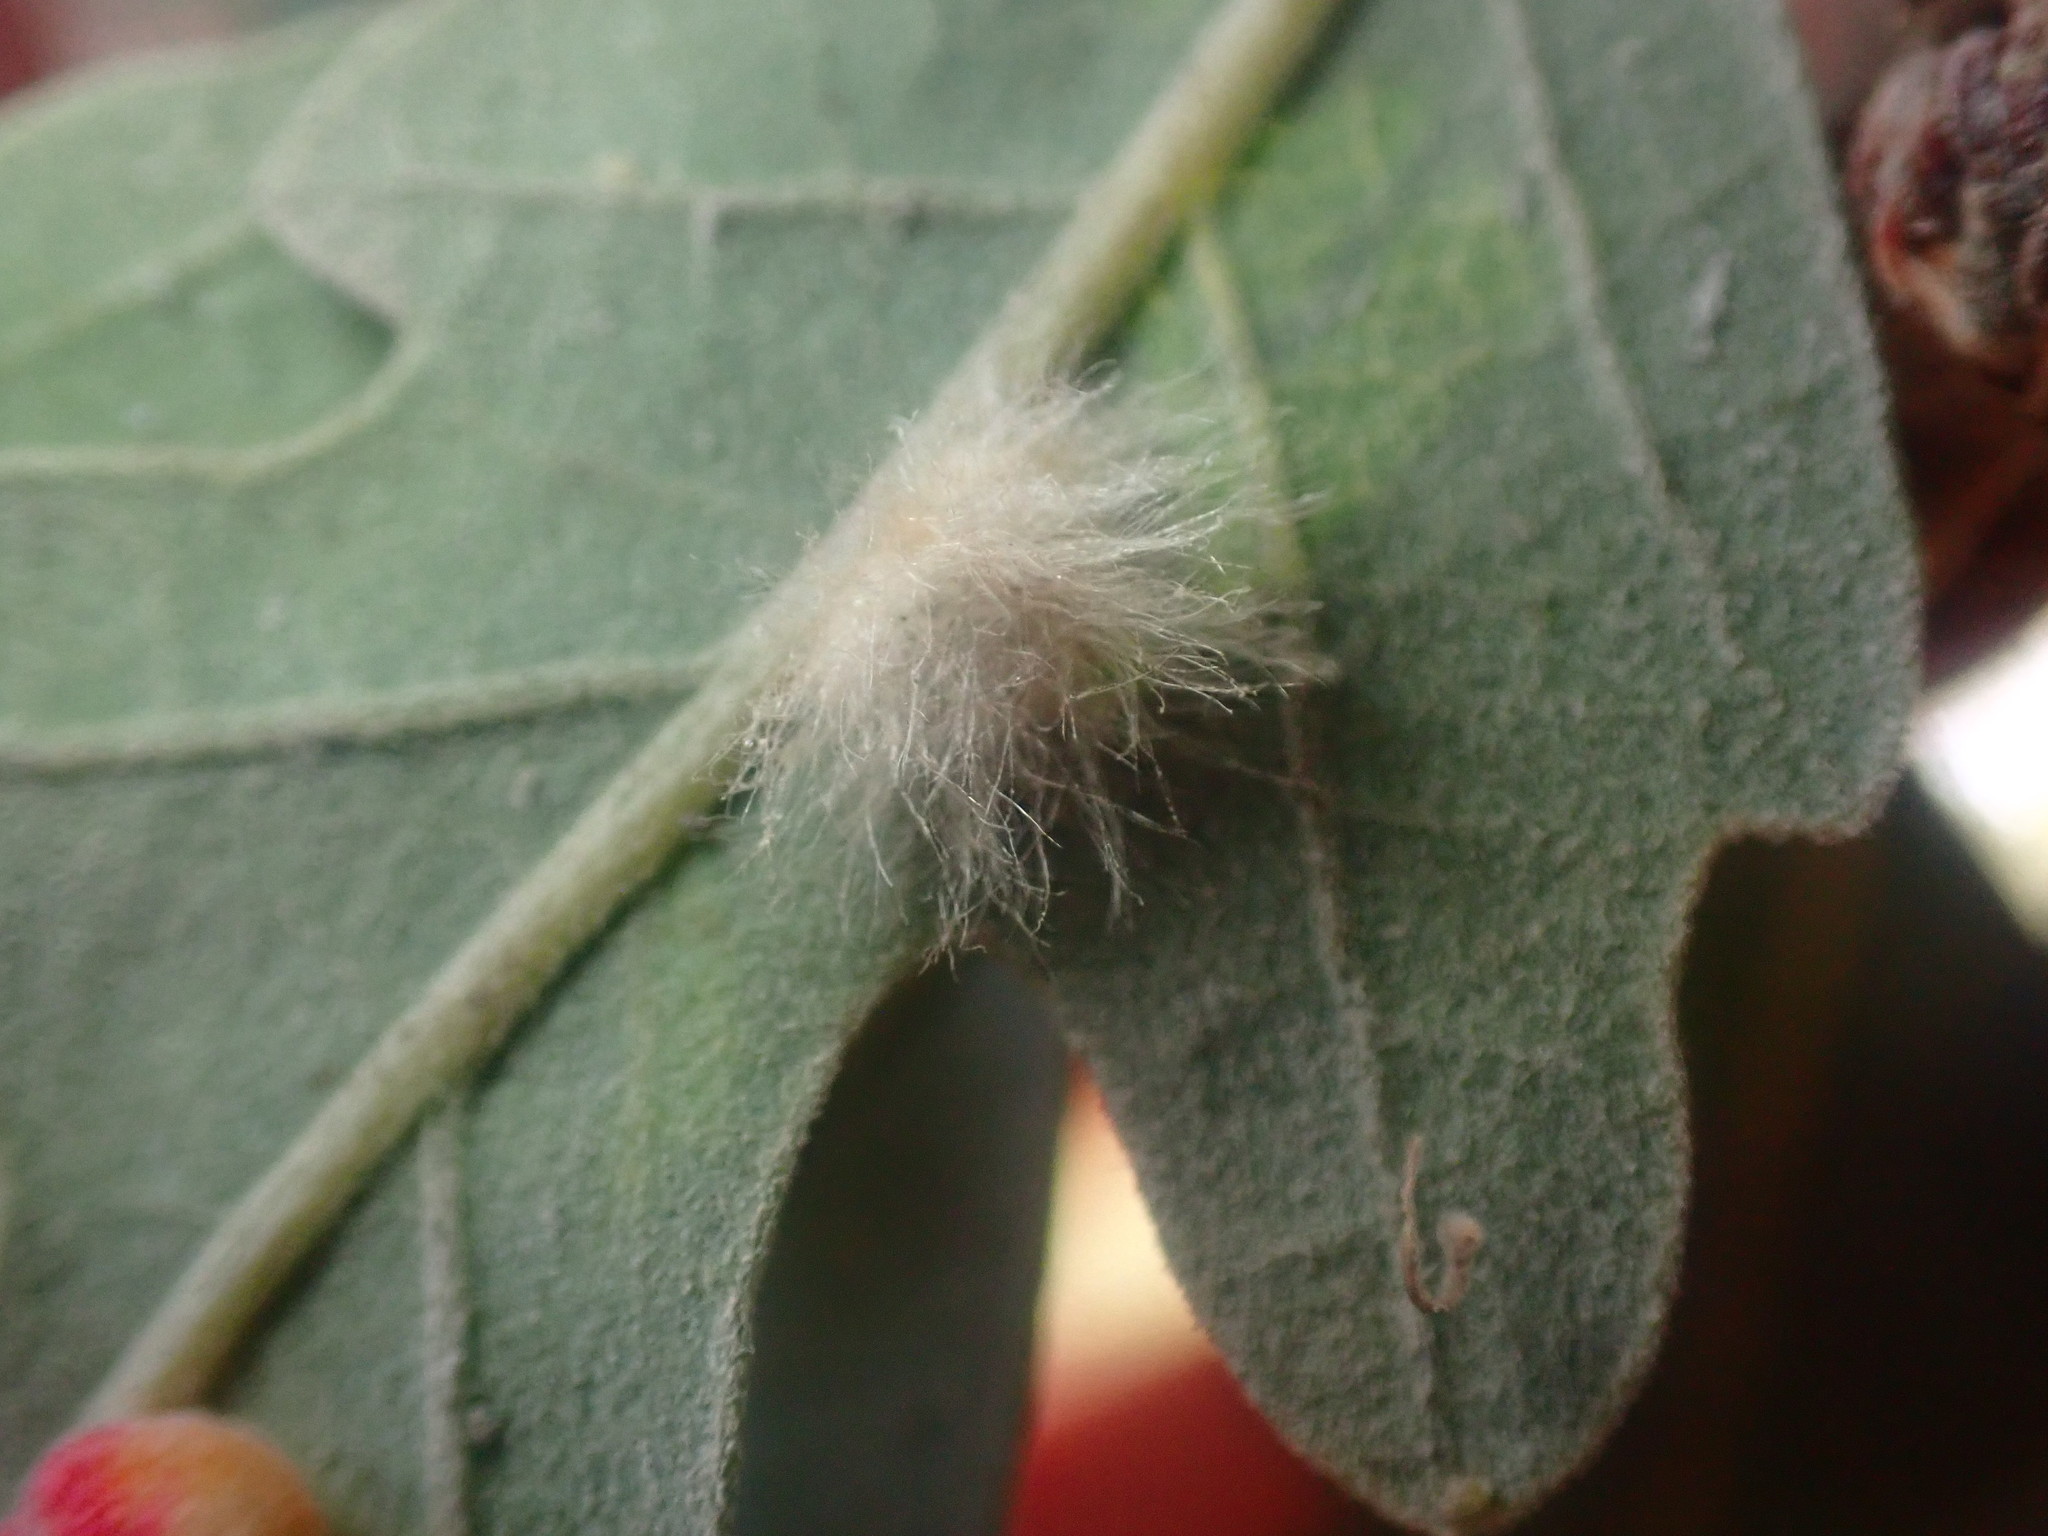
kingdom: Animalia
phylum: Arthropoda
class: Insecta
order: Hymenoptera
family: Cynipidae
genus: Andricus
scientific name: Andricus Druon fullawayi
